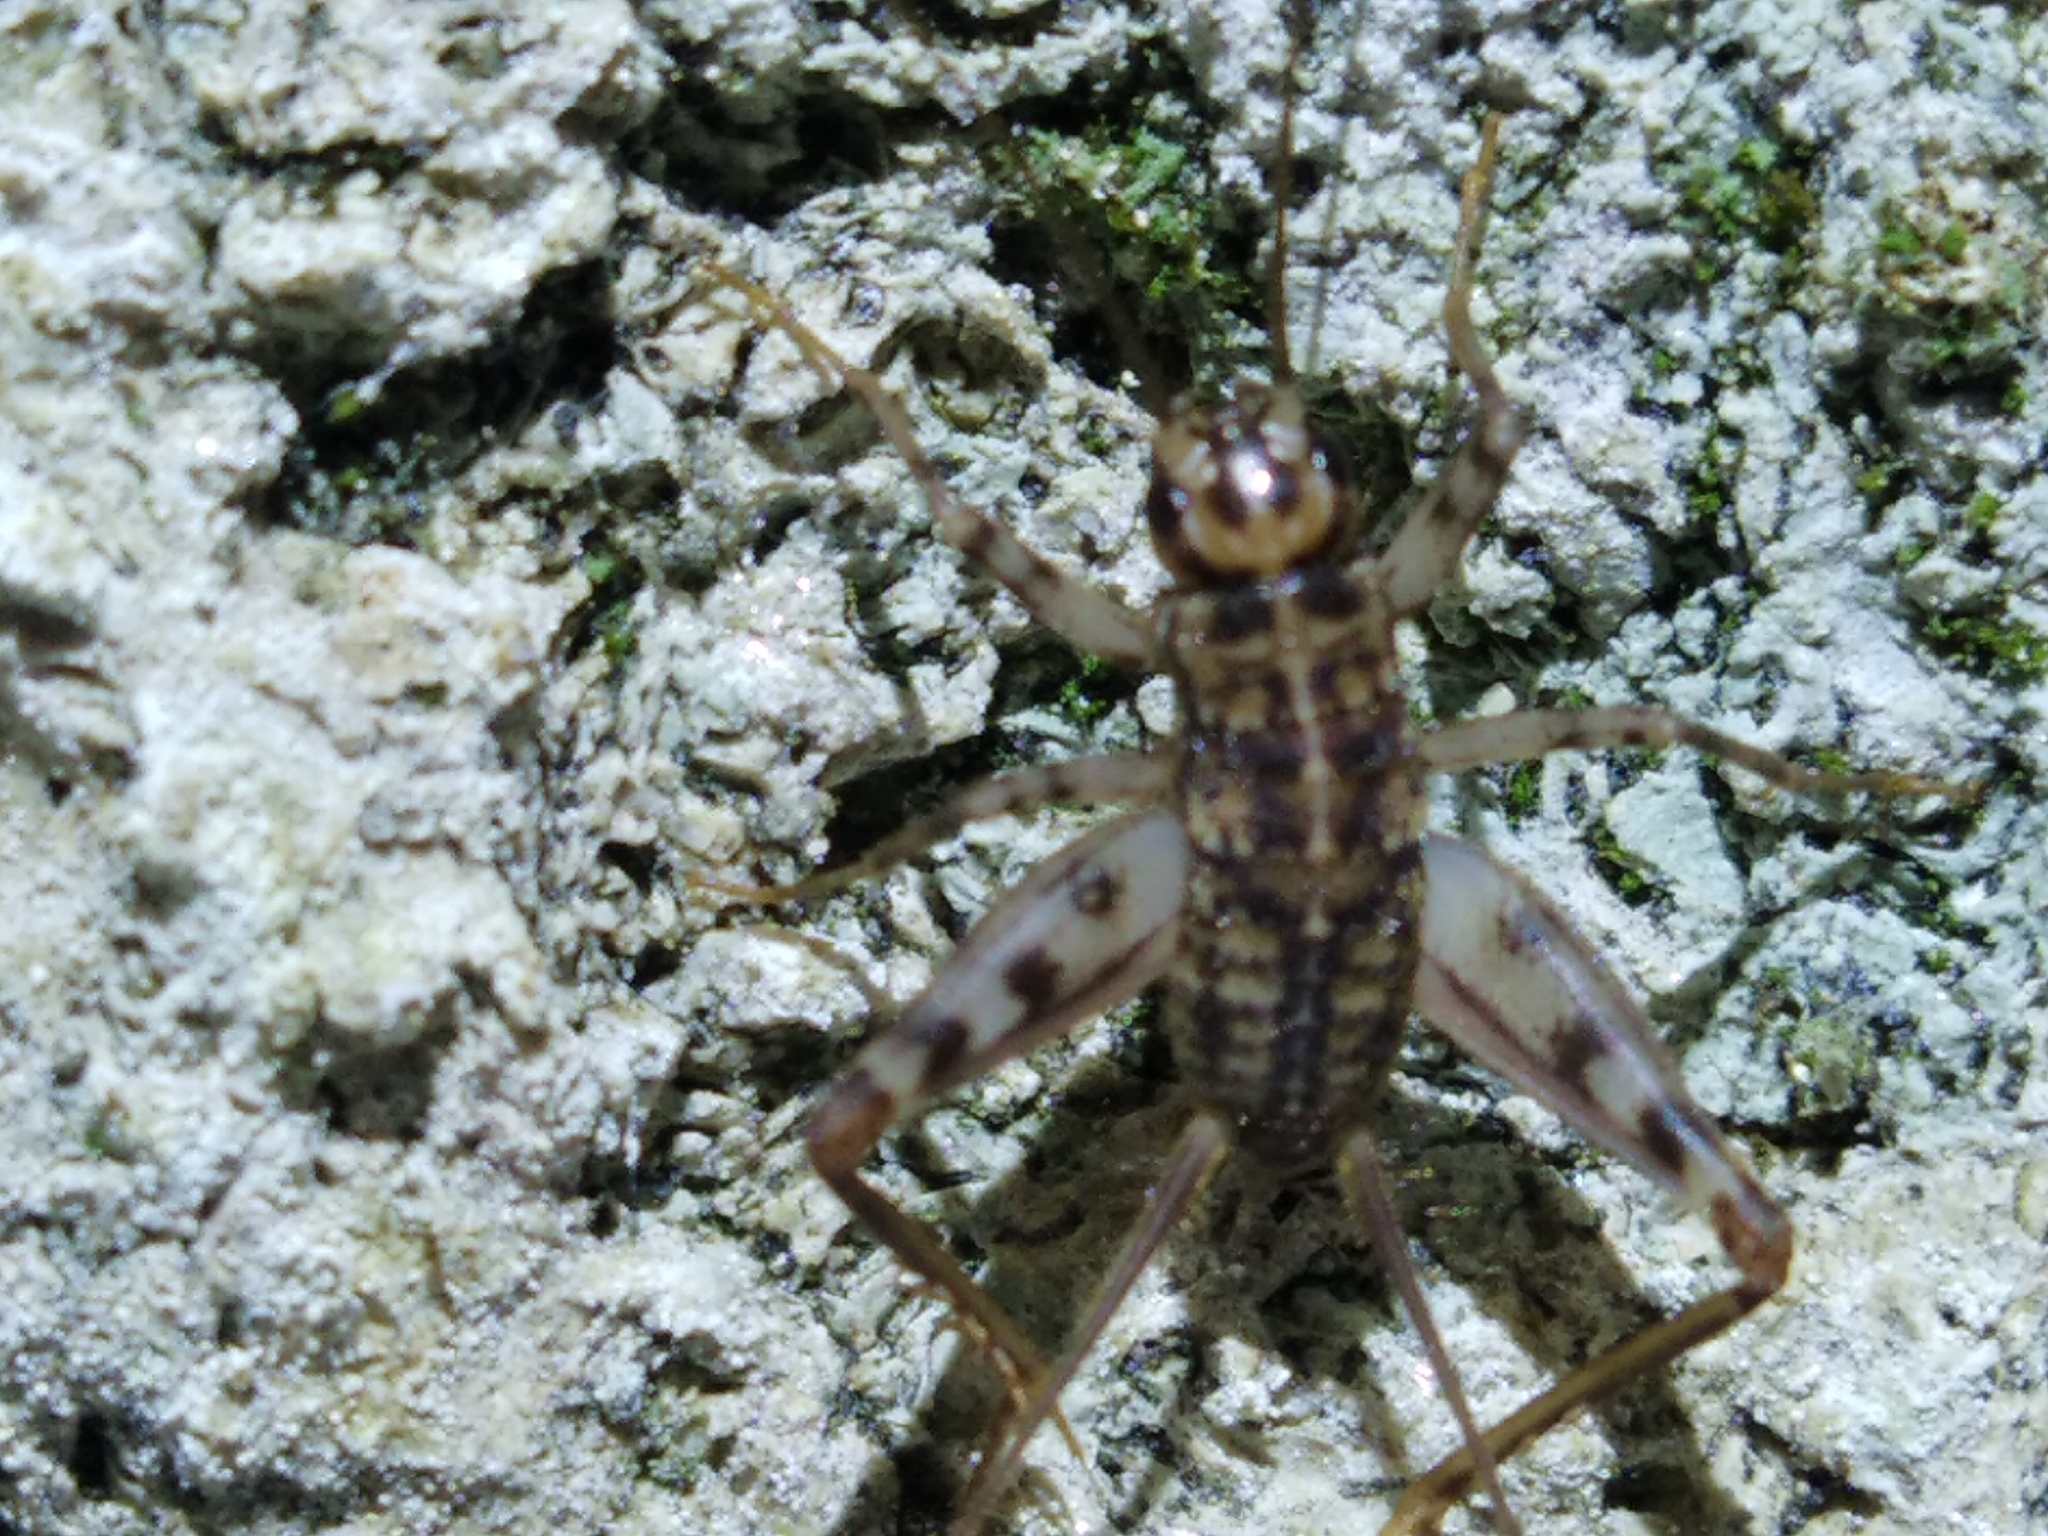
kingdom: Animalia
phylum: Arthropoda
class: Insecta
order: Orthoptera
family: Gryllidae
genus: Gryllomorpha
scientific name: Gryllomorpha dalmatina
